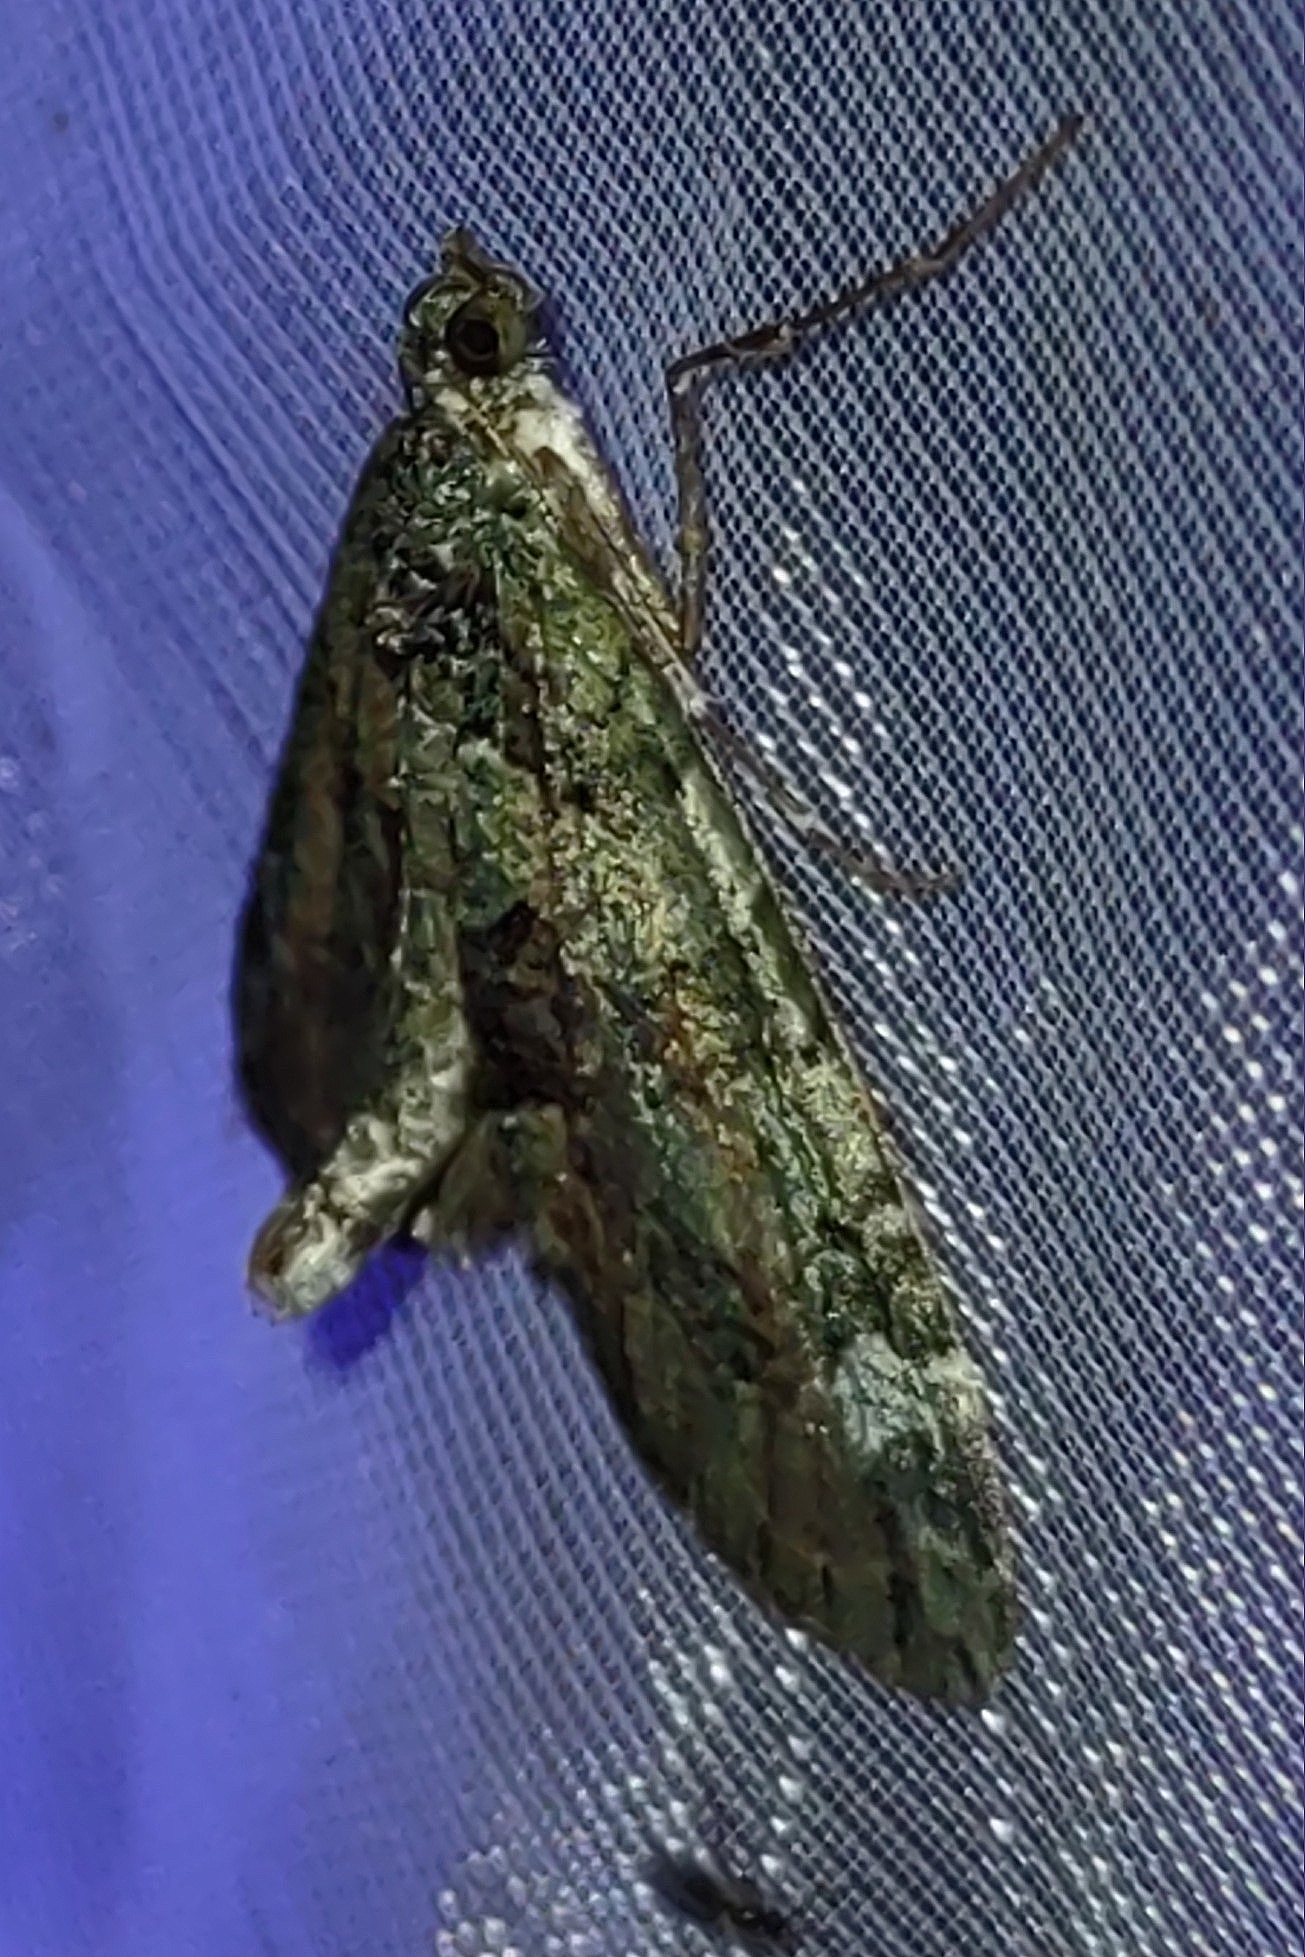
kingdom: Animalia
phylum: Arthropoda
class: Insecta
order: Lepidoptera
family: Geometridae
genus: Chloroclysta
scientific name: Chloroclysta siterata
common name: Red-green carpet
